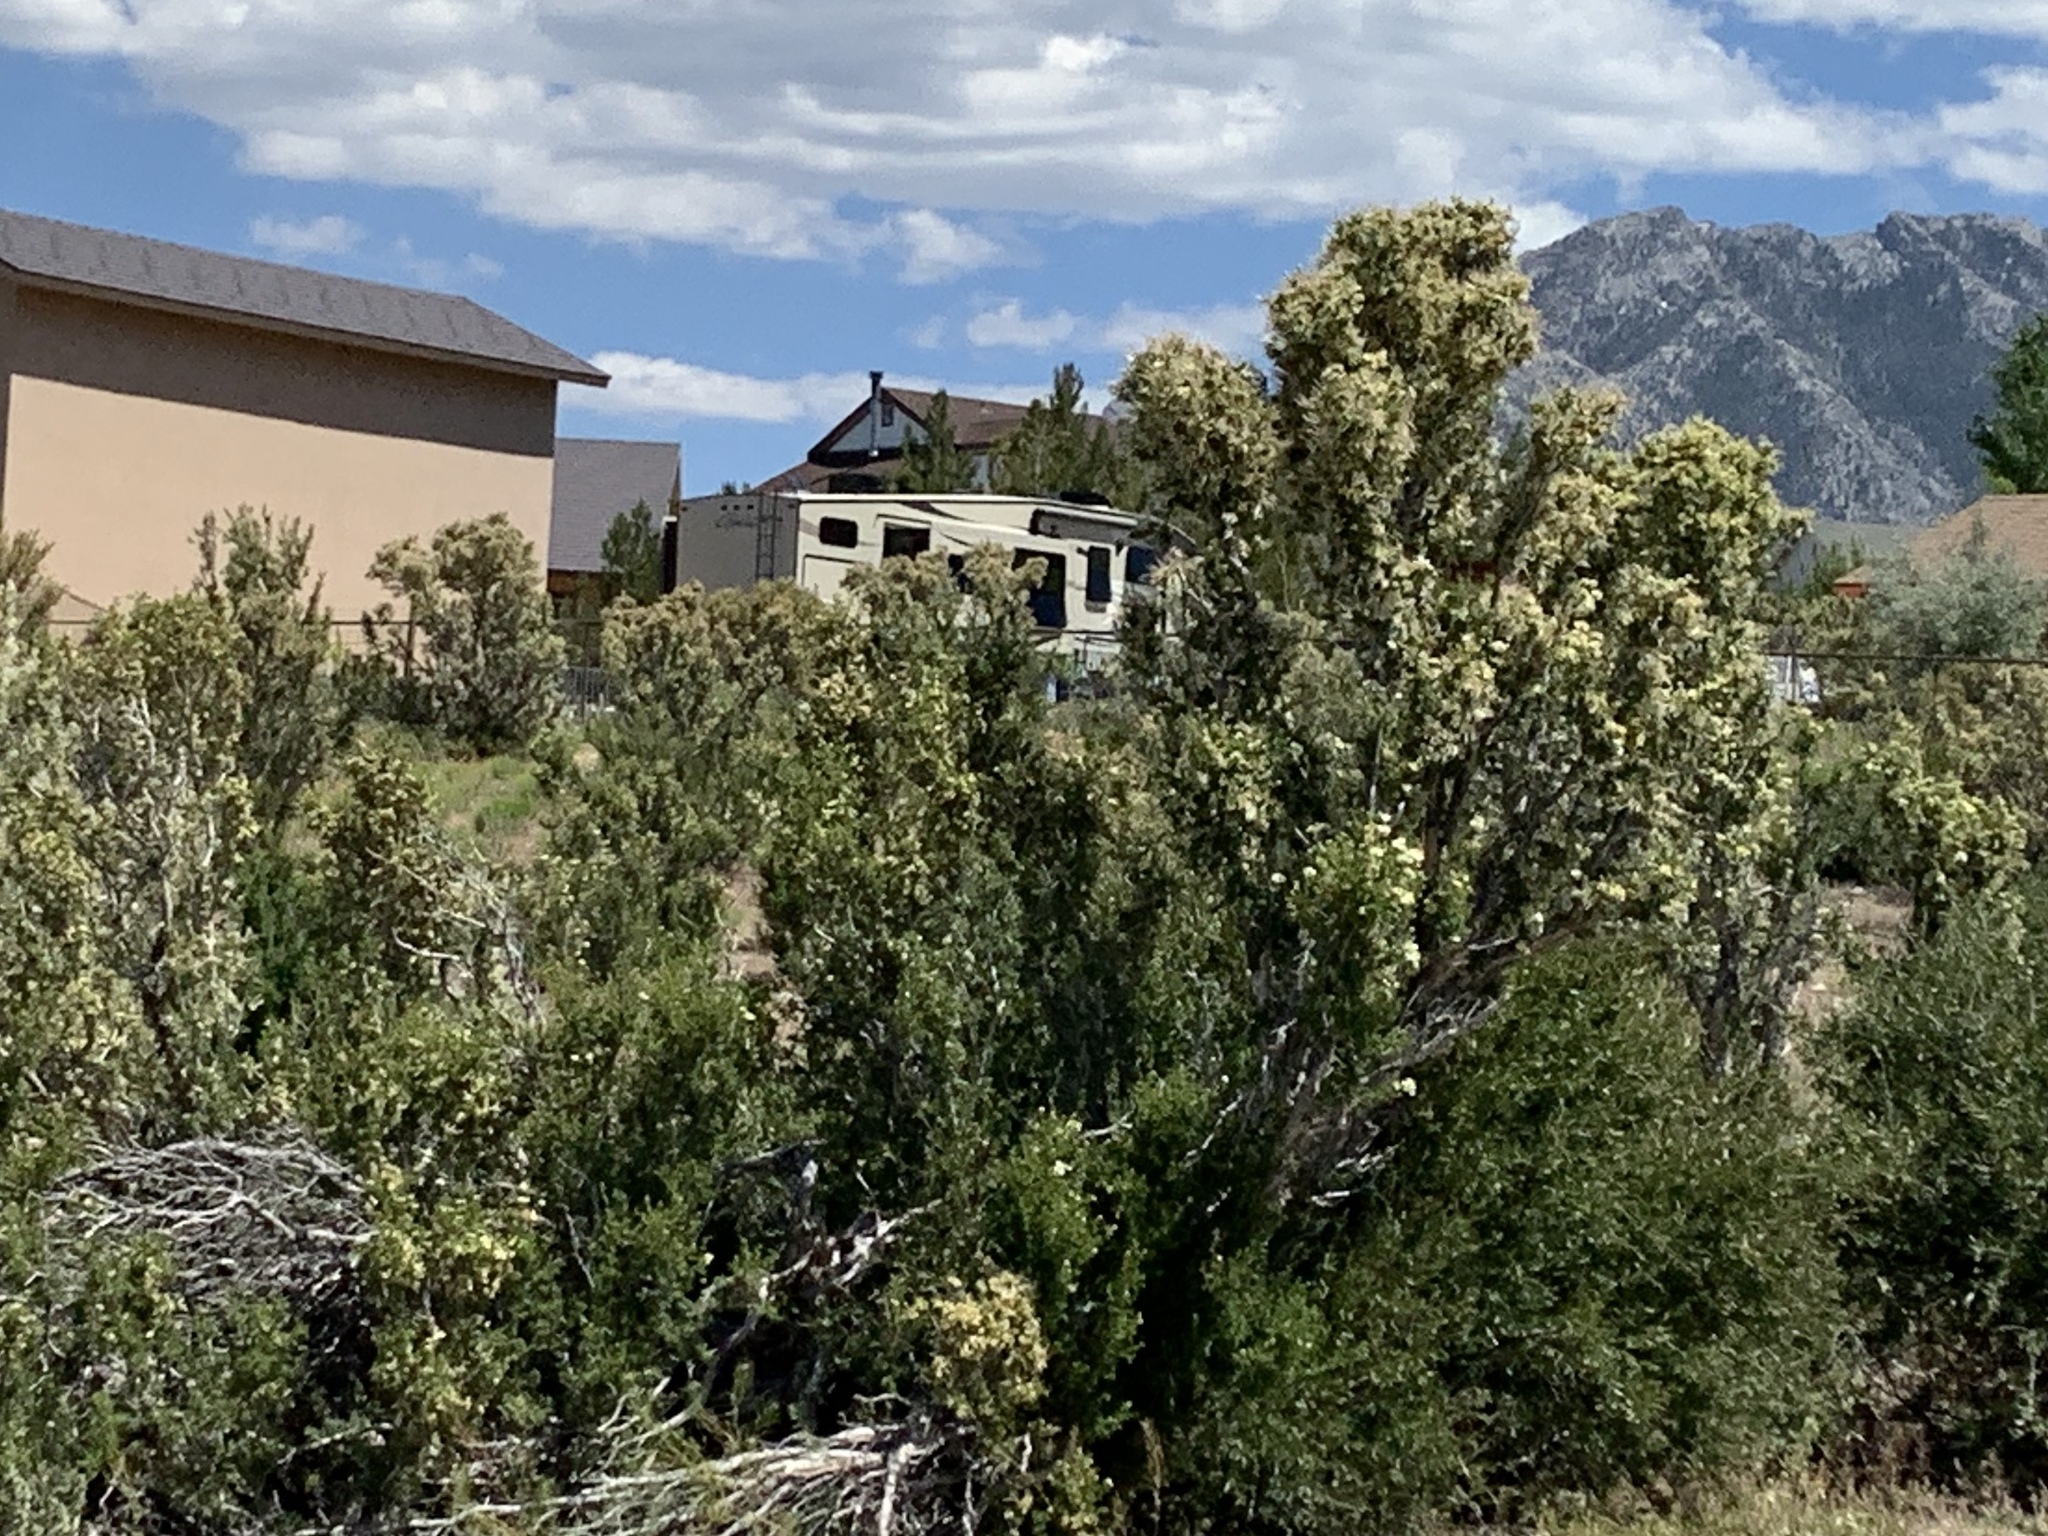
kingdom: Plantae
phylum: Tracheophyta
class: Magnoliopsida
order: Rosales
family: Rosaceae
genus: Purshia
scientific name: Purshia stansburiana
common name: Stansbury's cliffrose
